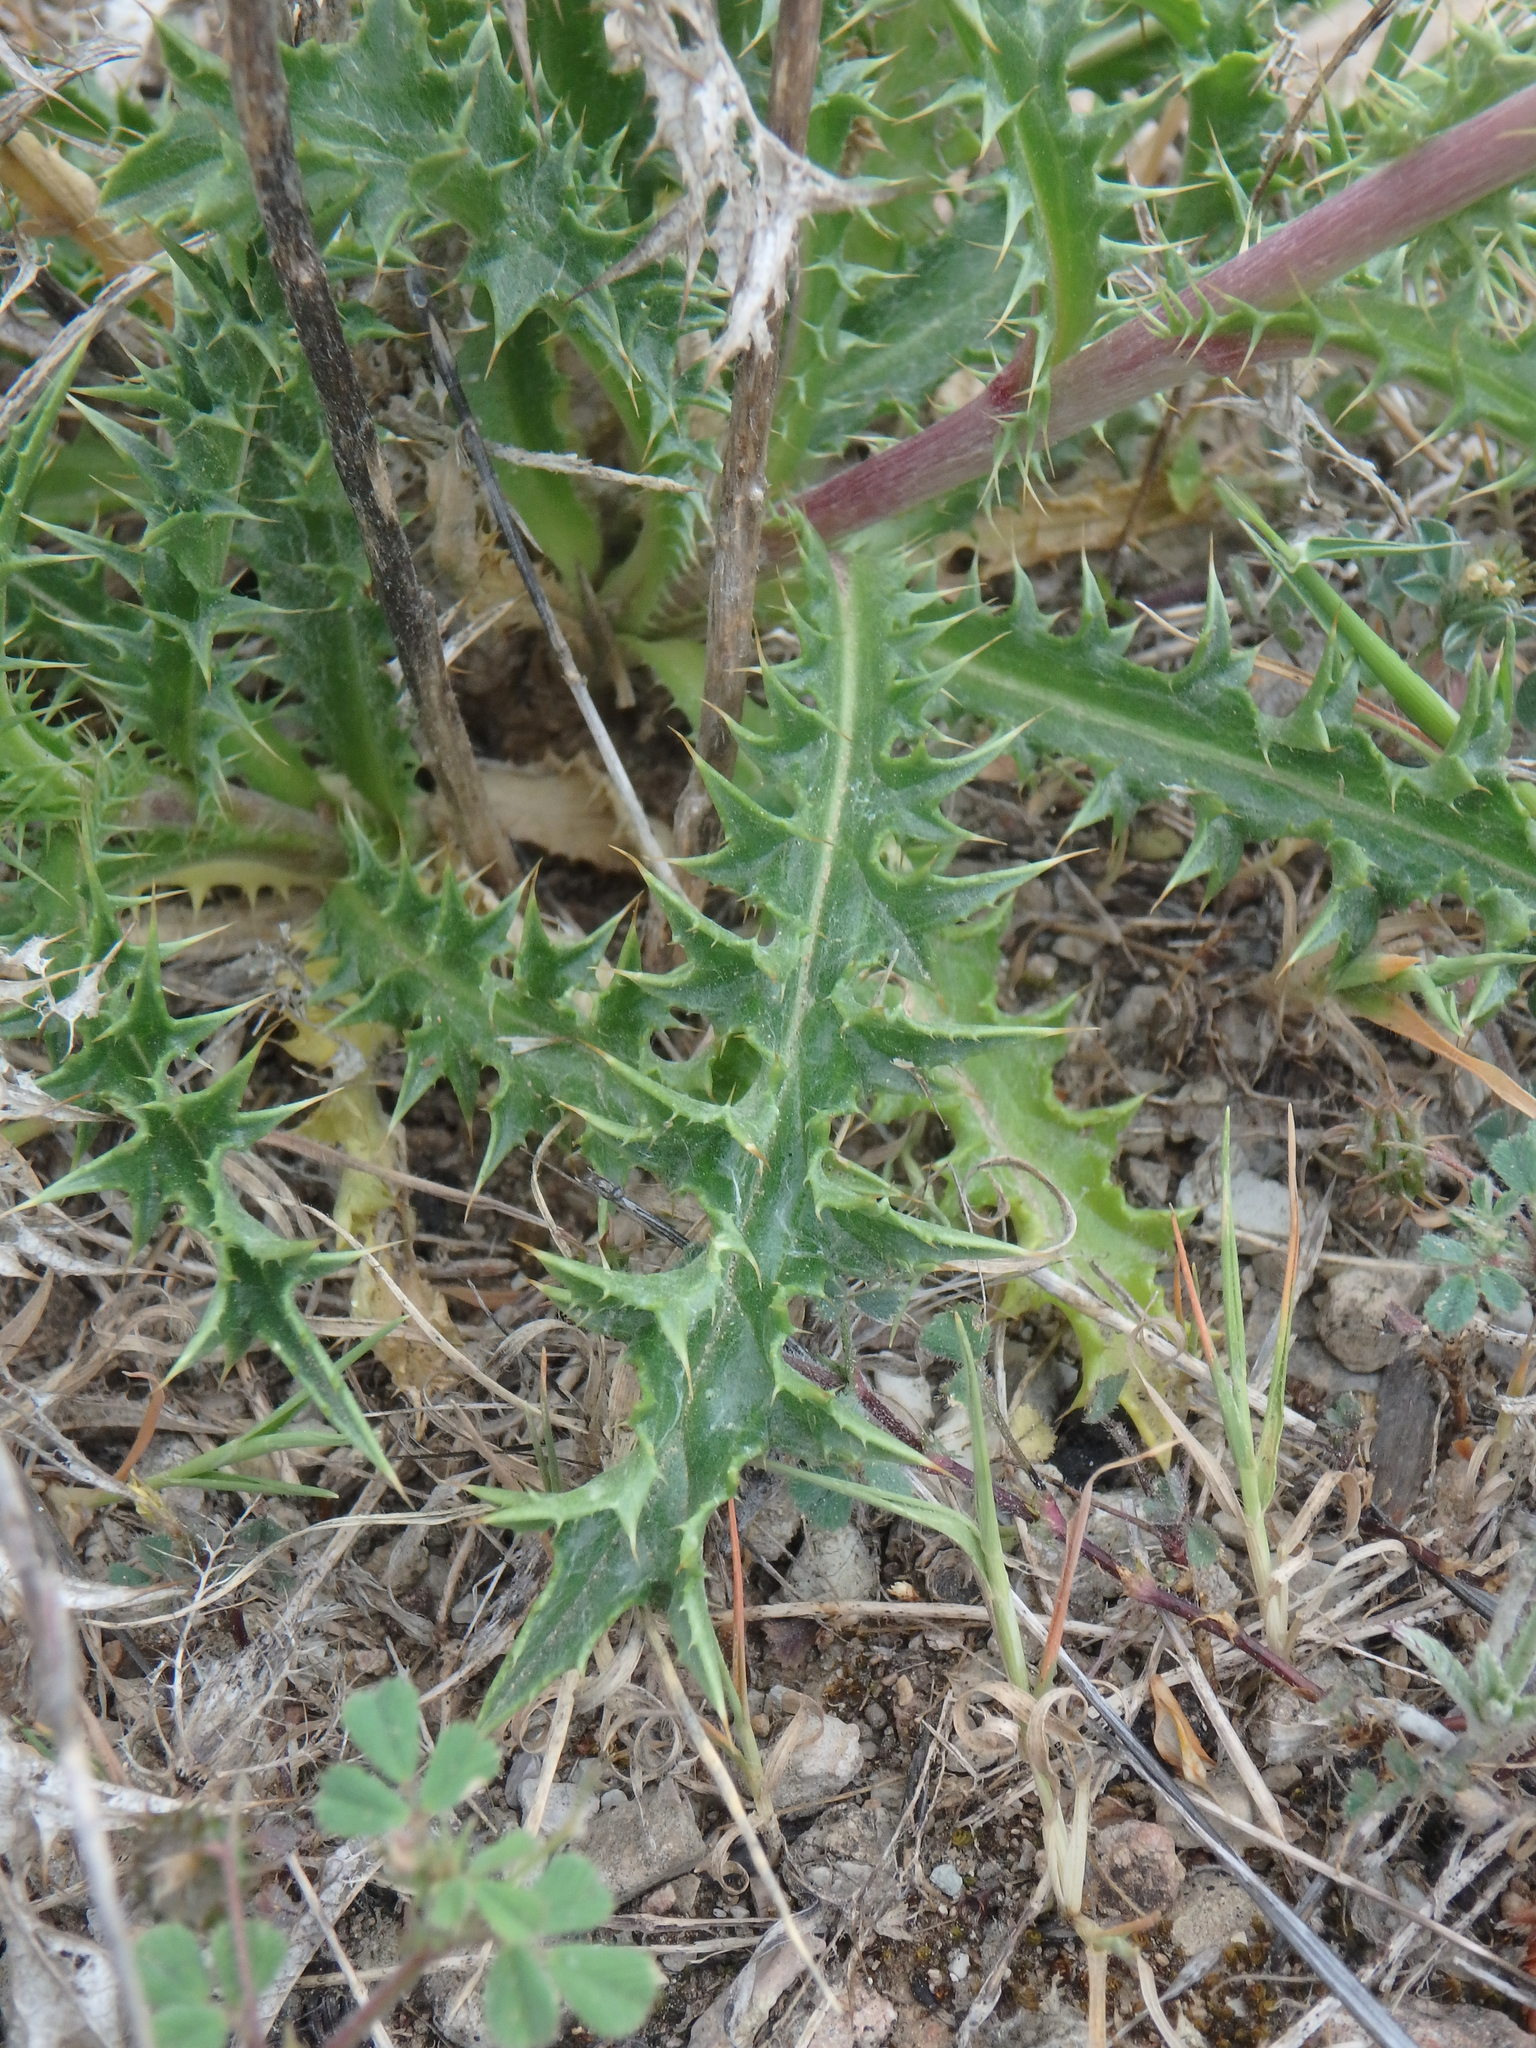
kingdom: Plantae
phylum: Tracheophyta
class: Magnoliopsida
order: Asterales
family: Asteraceae
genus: Carlina
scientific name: Carlina corymbosa
